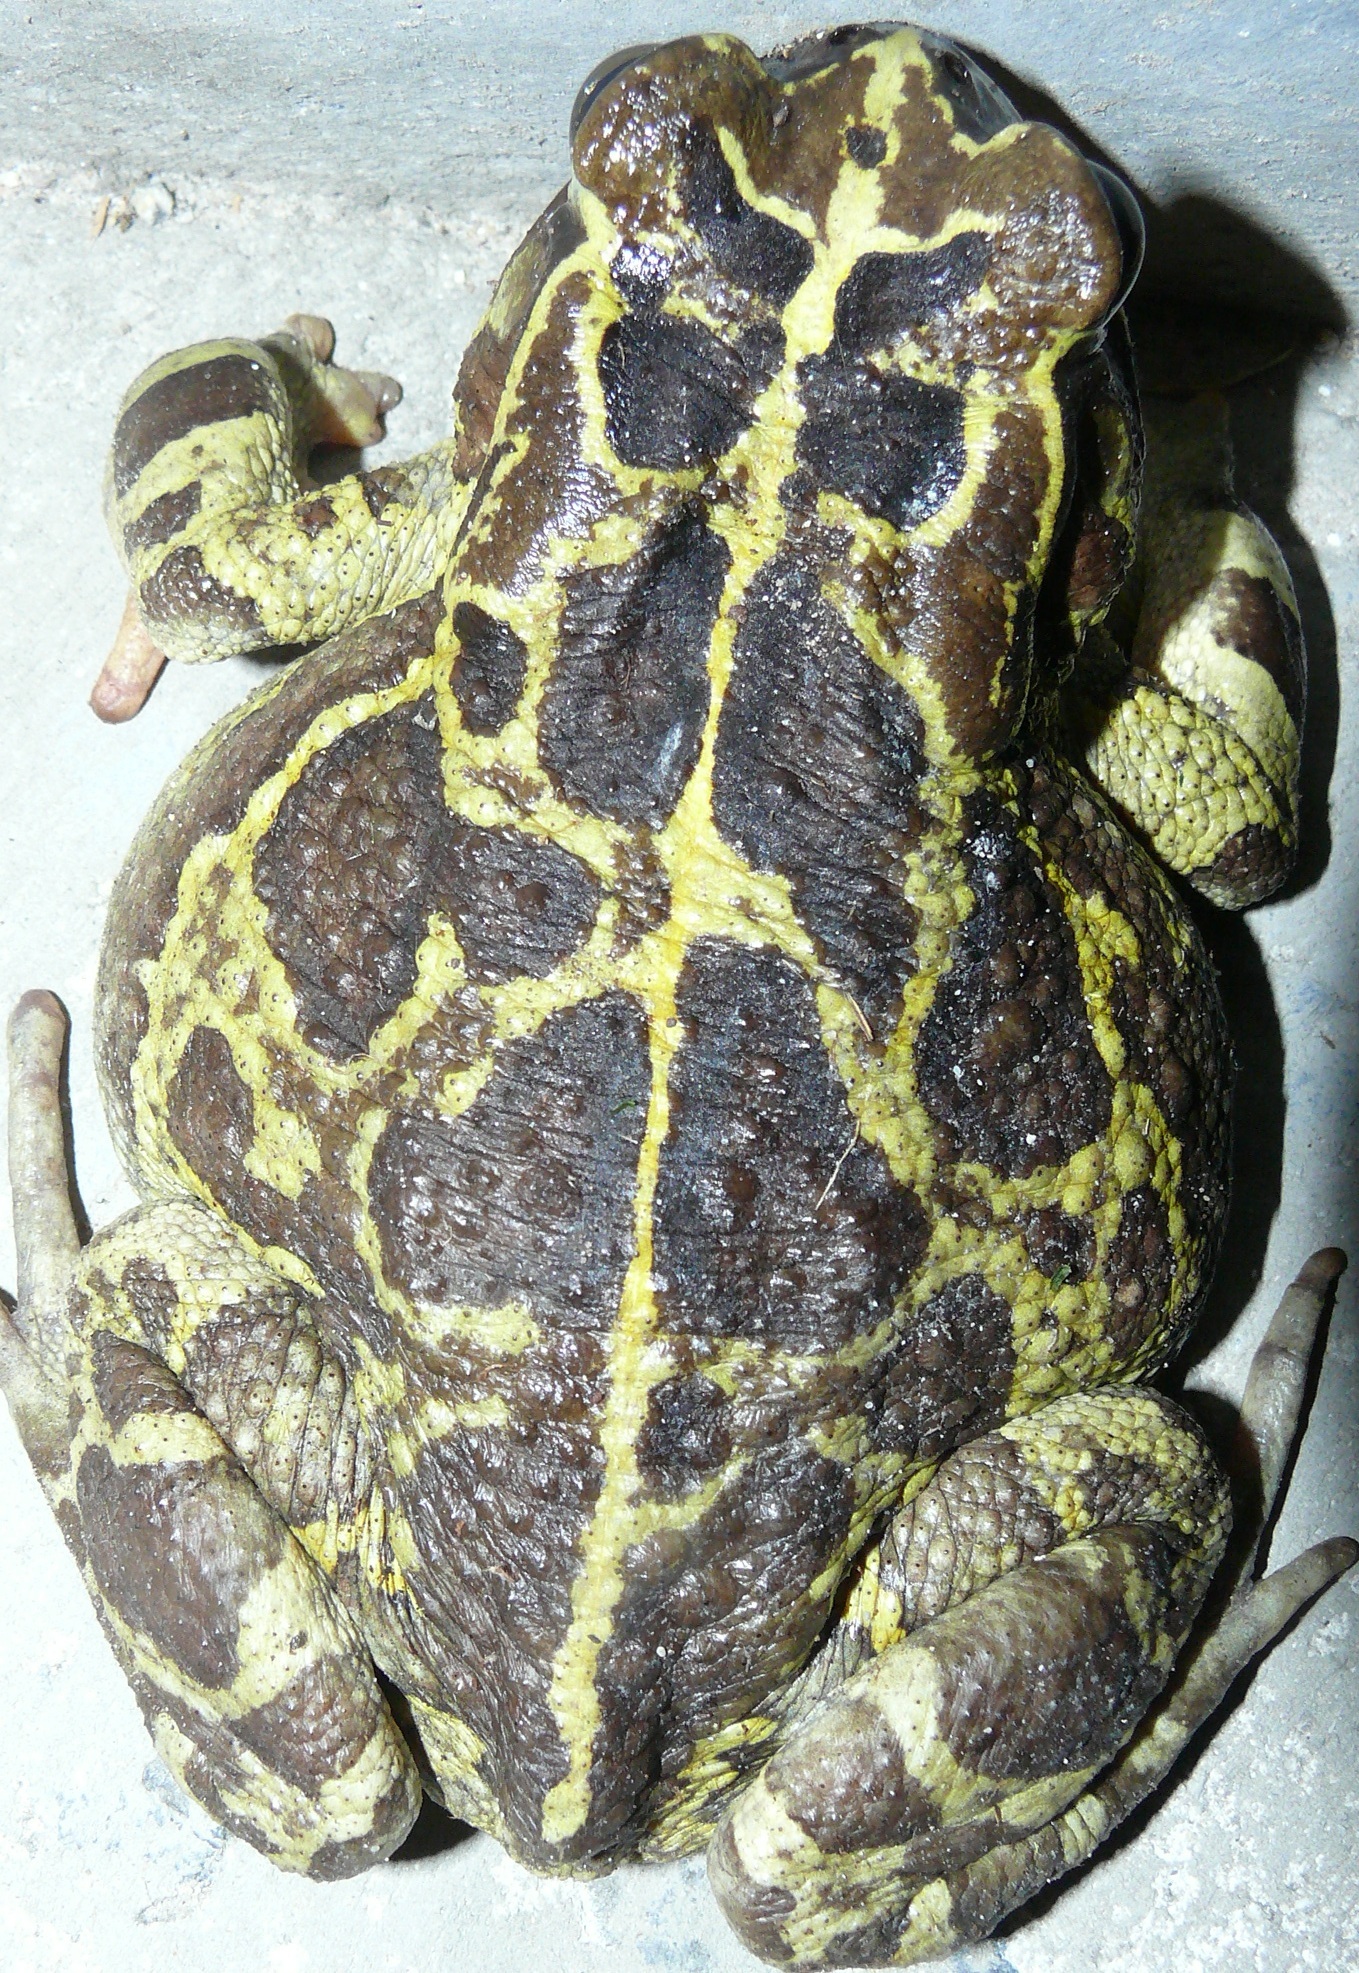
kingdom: Animalia
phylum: Chordata
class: Amphibia
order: Anura
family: Bufonidae
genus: Sclerophrys
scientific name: Sclerophrys pantherina
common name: Panther toad
